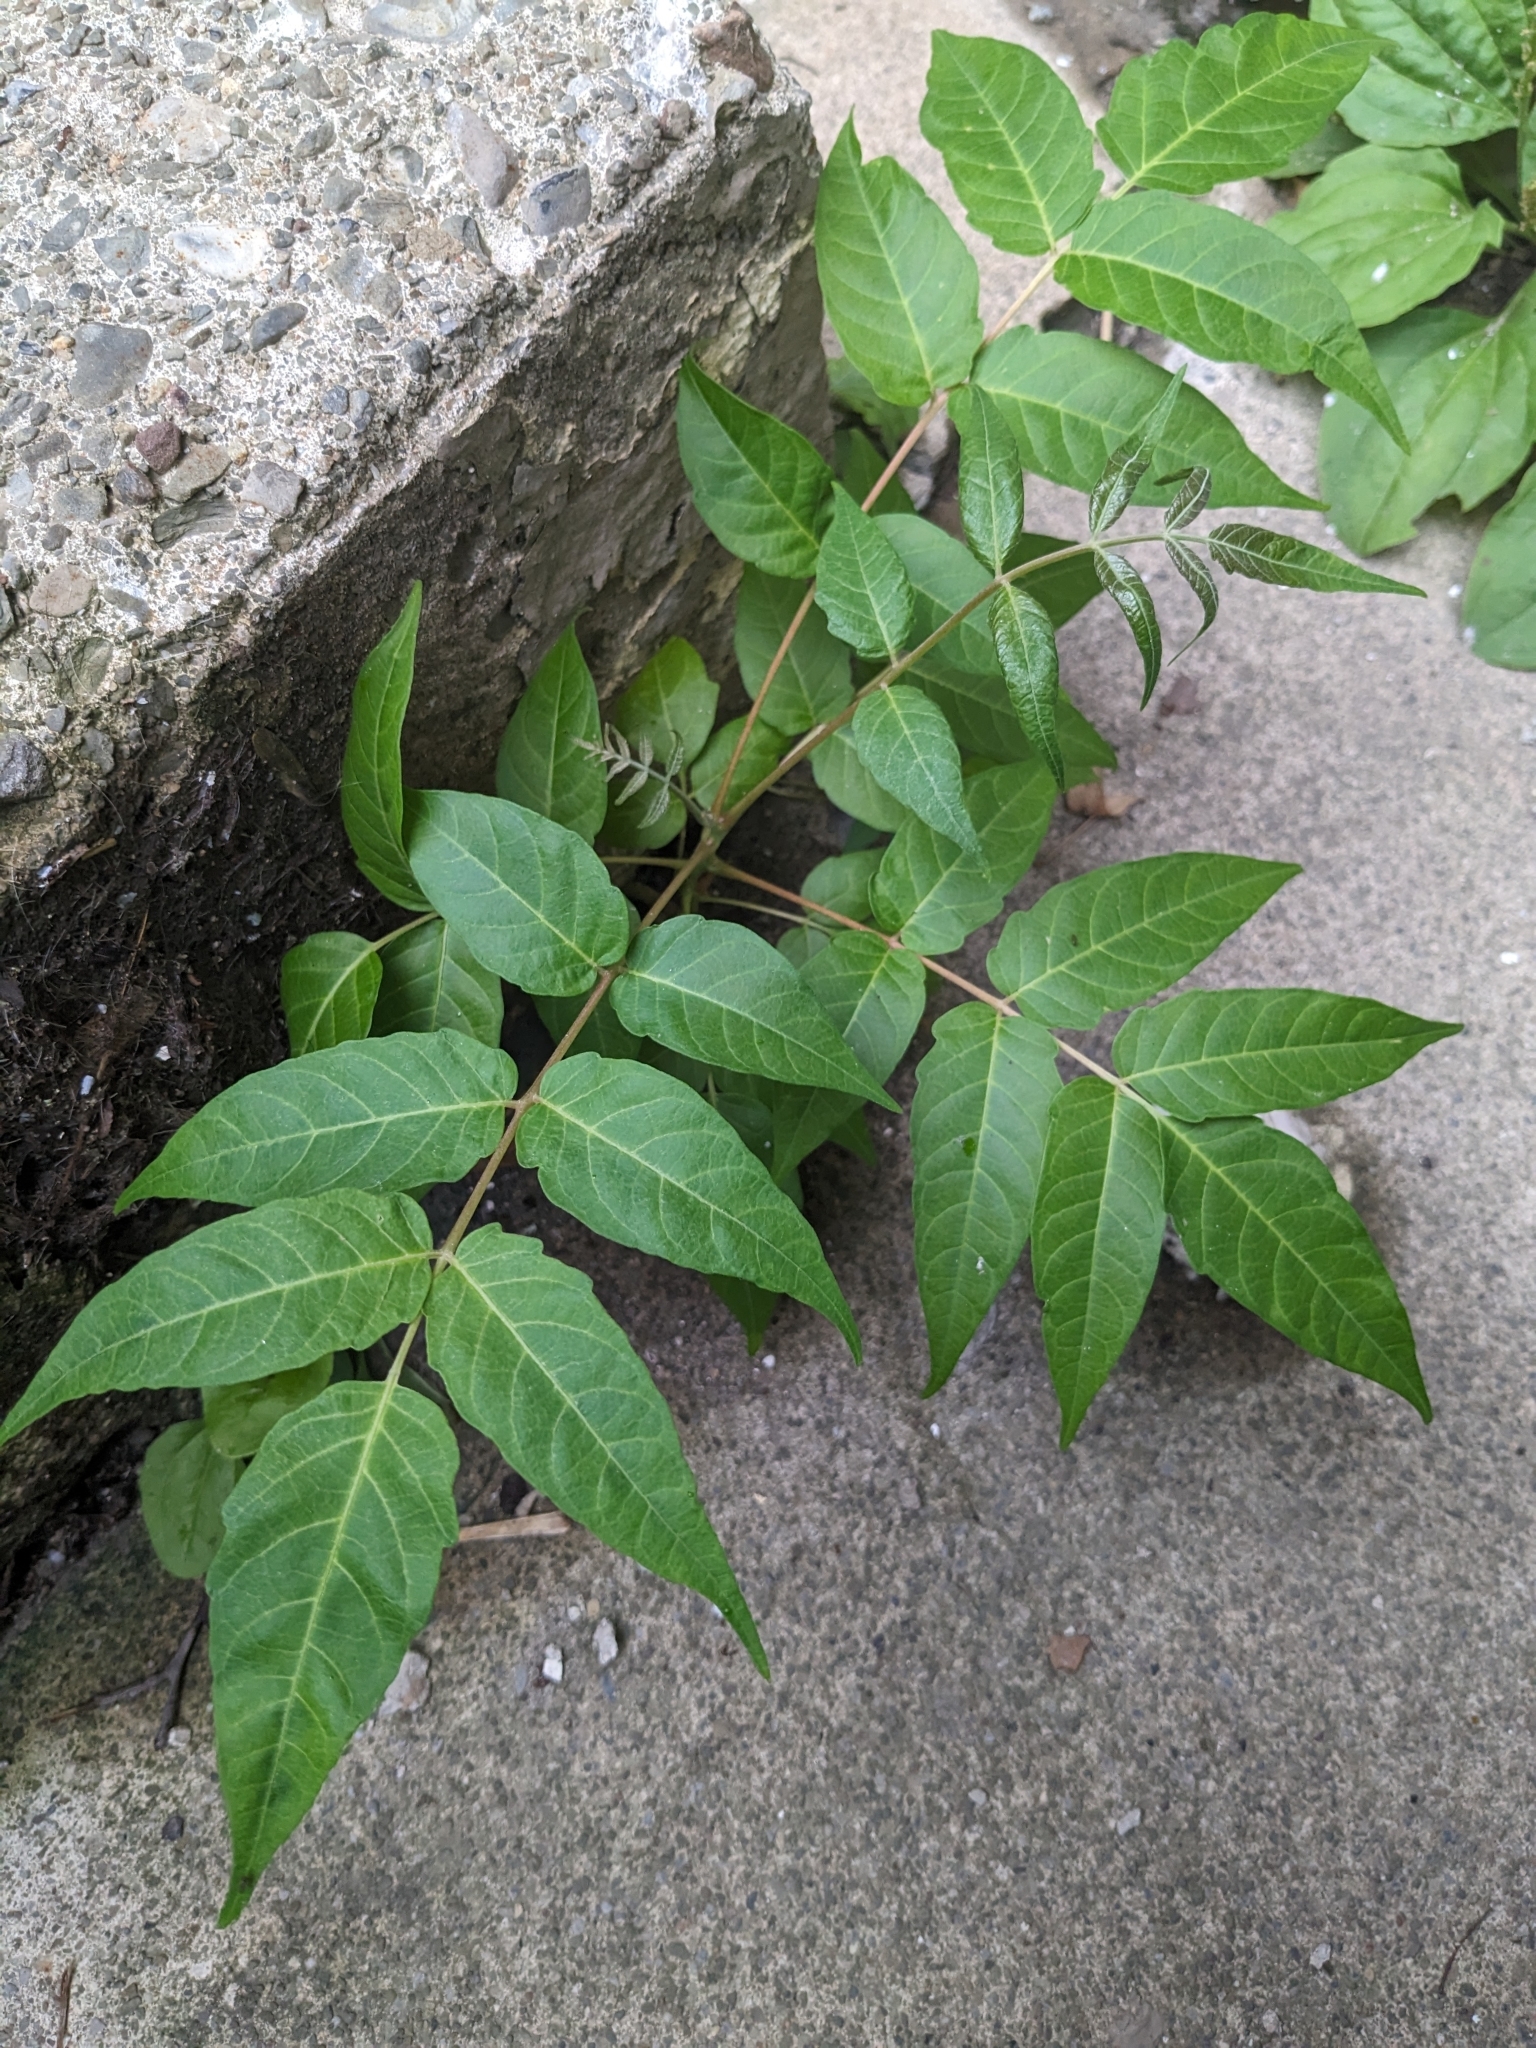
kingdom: Plantae
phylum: Tracheophyta
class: Magnoliopsida
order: Sapindales
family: Simaroubaceae
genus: Ailanthus
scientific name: Ailanthus altissima
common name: Tree-of-heaven
